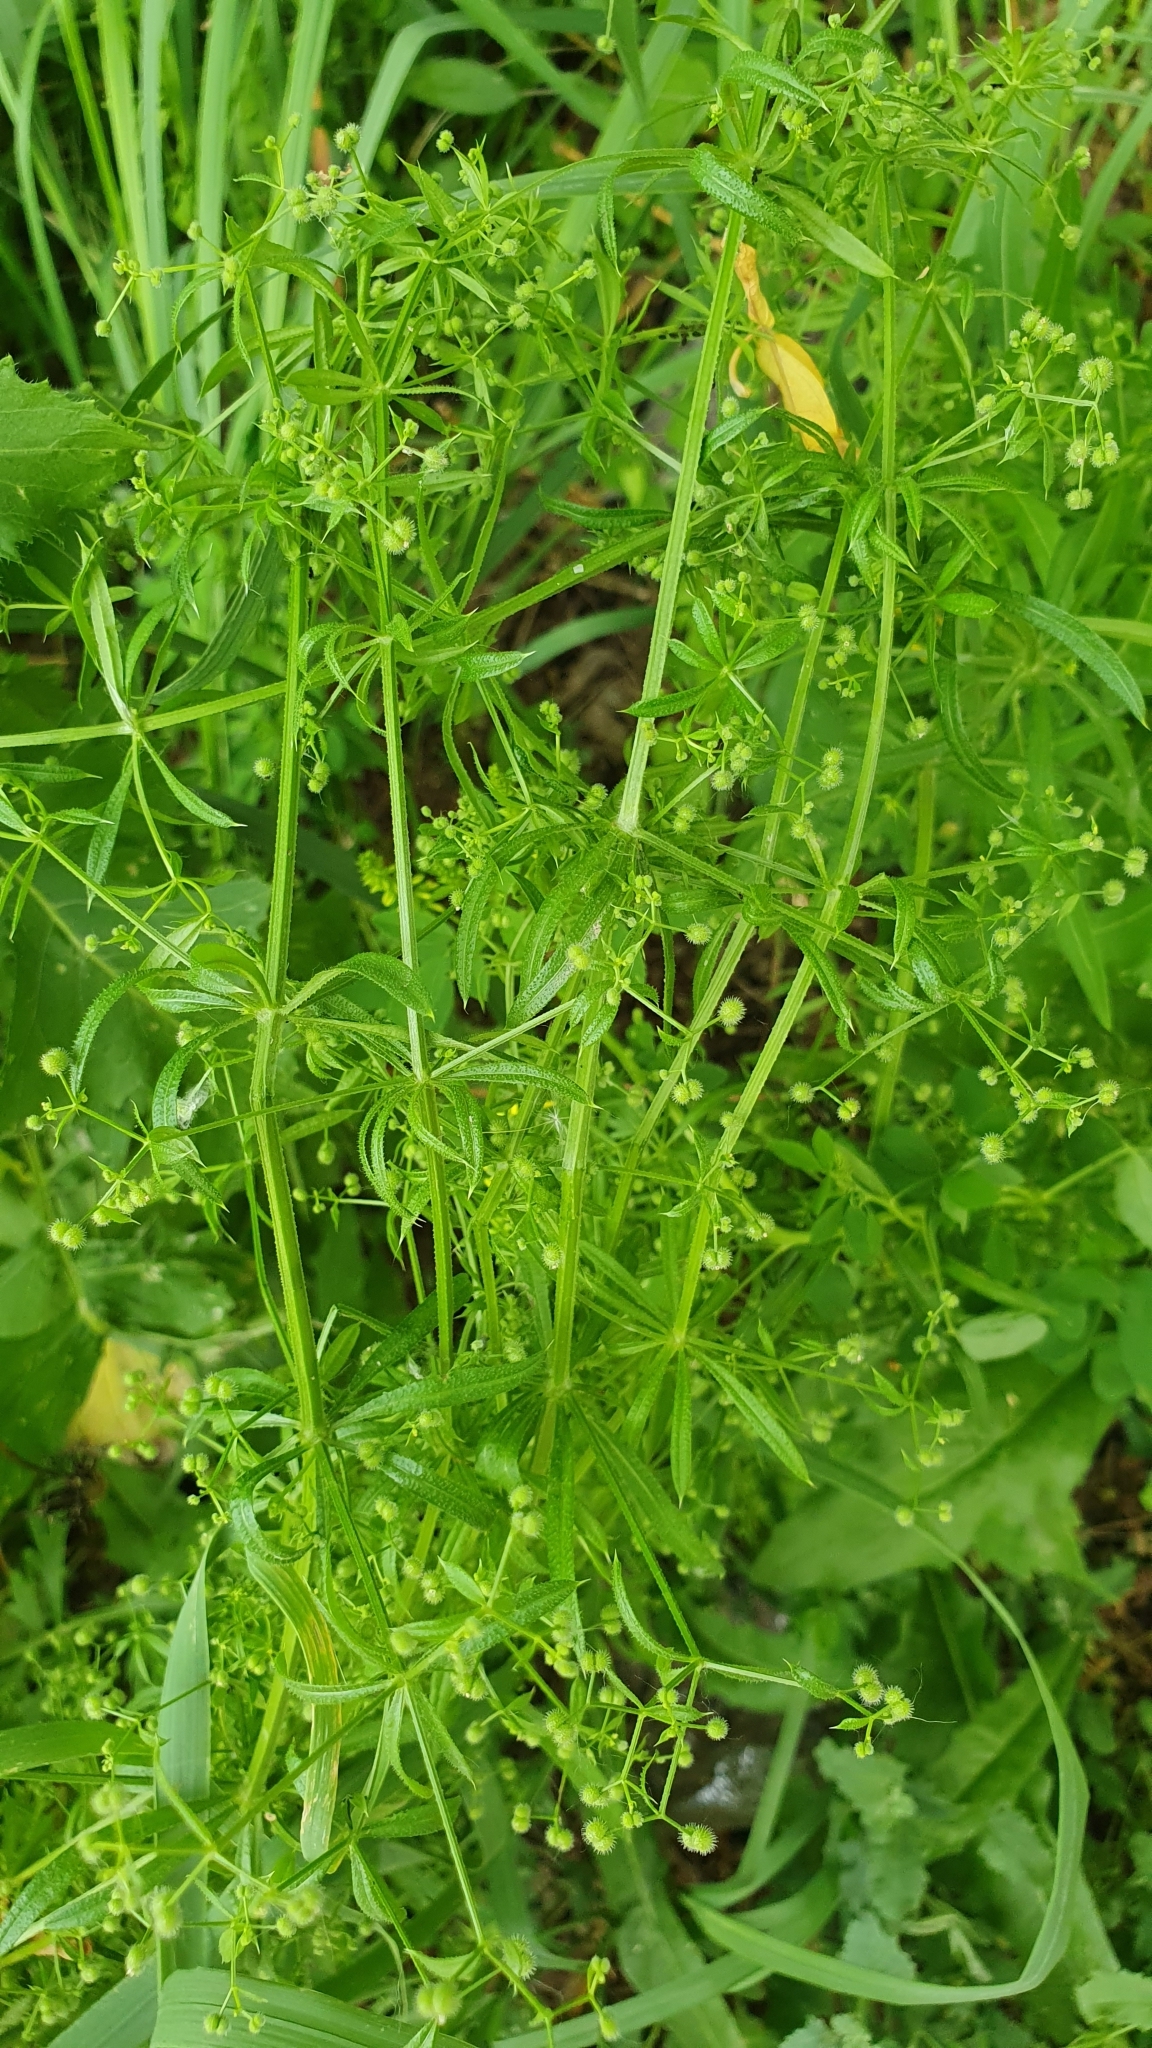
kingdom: Plantae
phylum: Tracheophyta
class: Magnoliopsida
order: Gentianales
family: Rubiaceae
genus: Galium
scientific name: Galium aparine
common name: Cleavers
